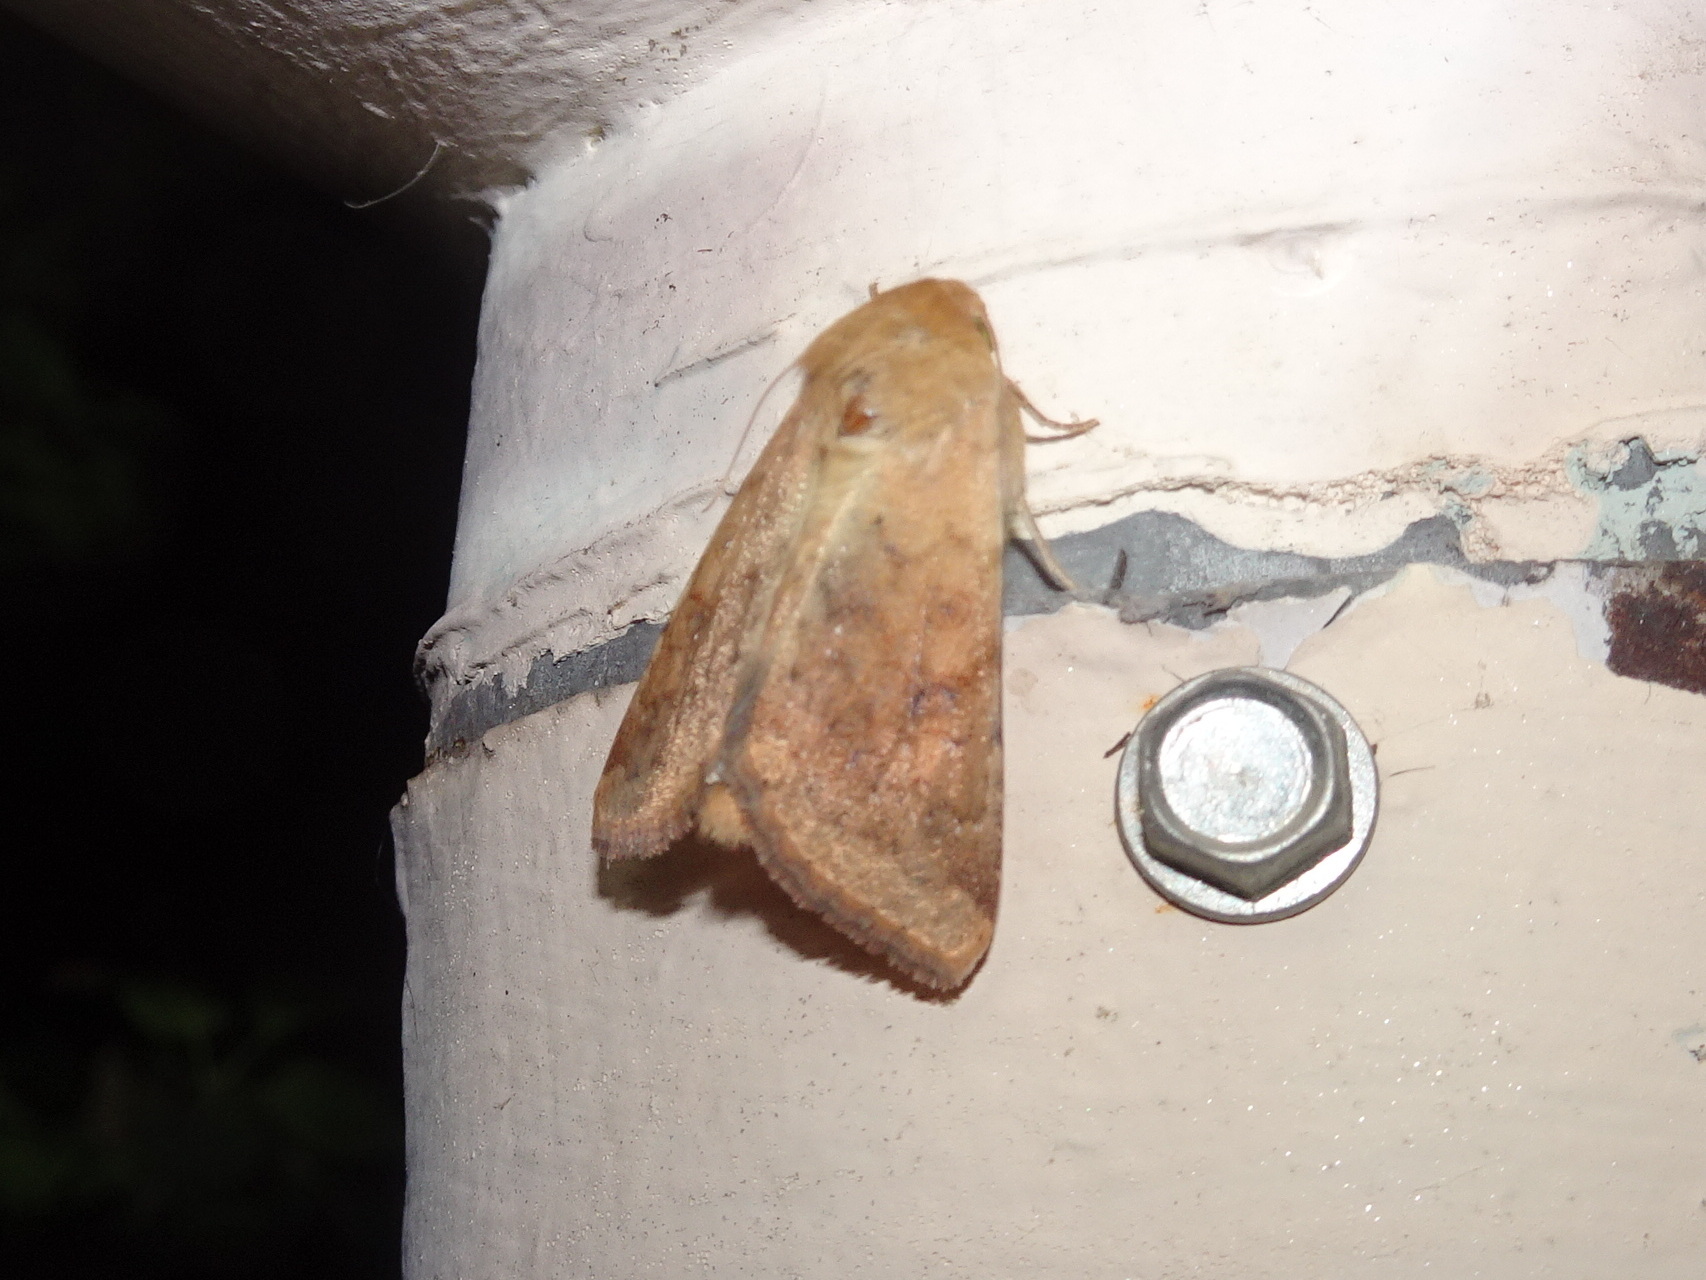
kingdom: Animalia
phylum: Arthropoda
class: Insecta
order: Lepidoptera
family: Noctuidae
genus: Helicoverpa
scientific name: Helicoverpa zea
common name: Bollworm
